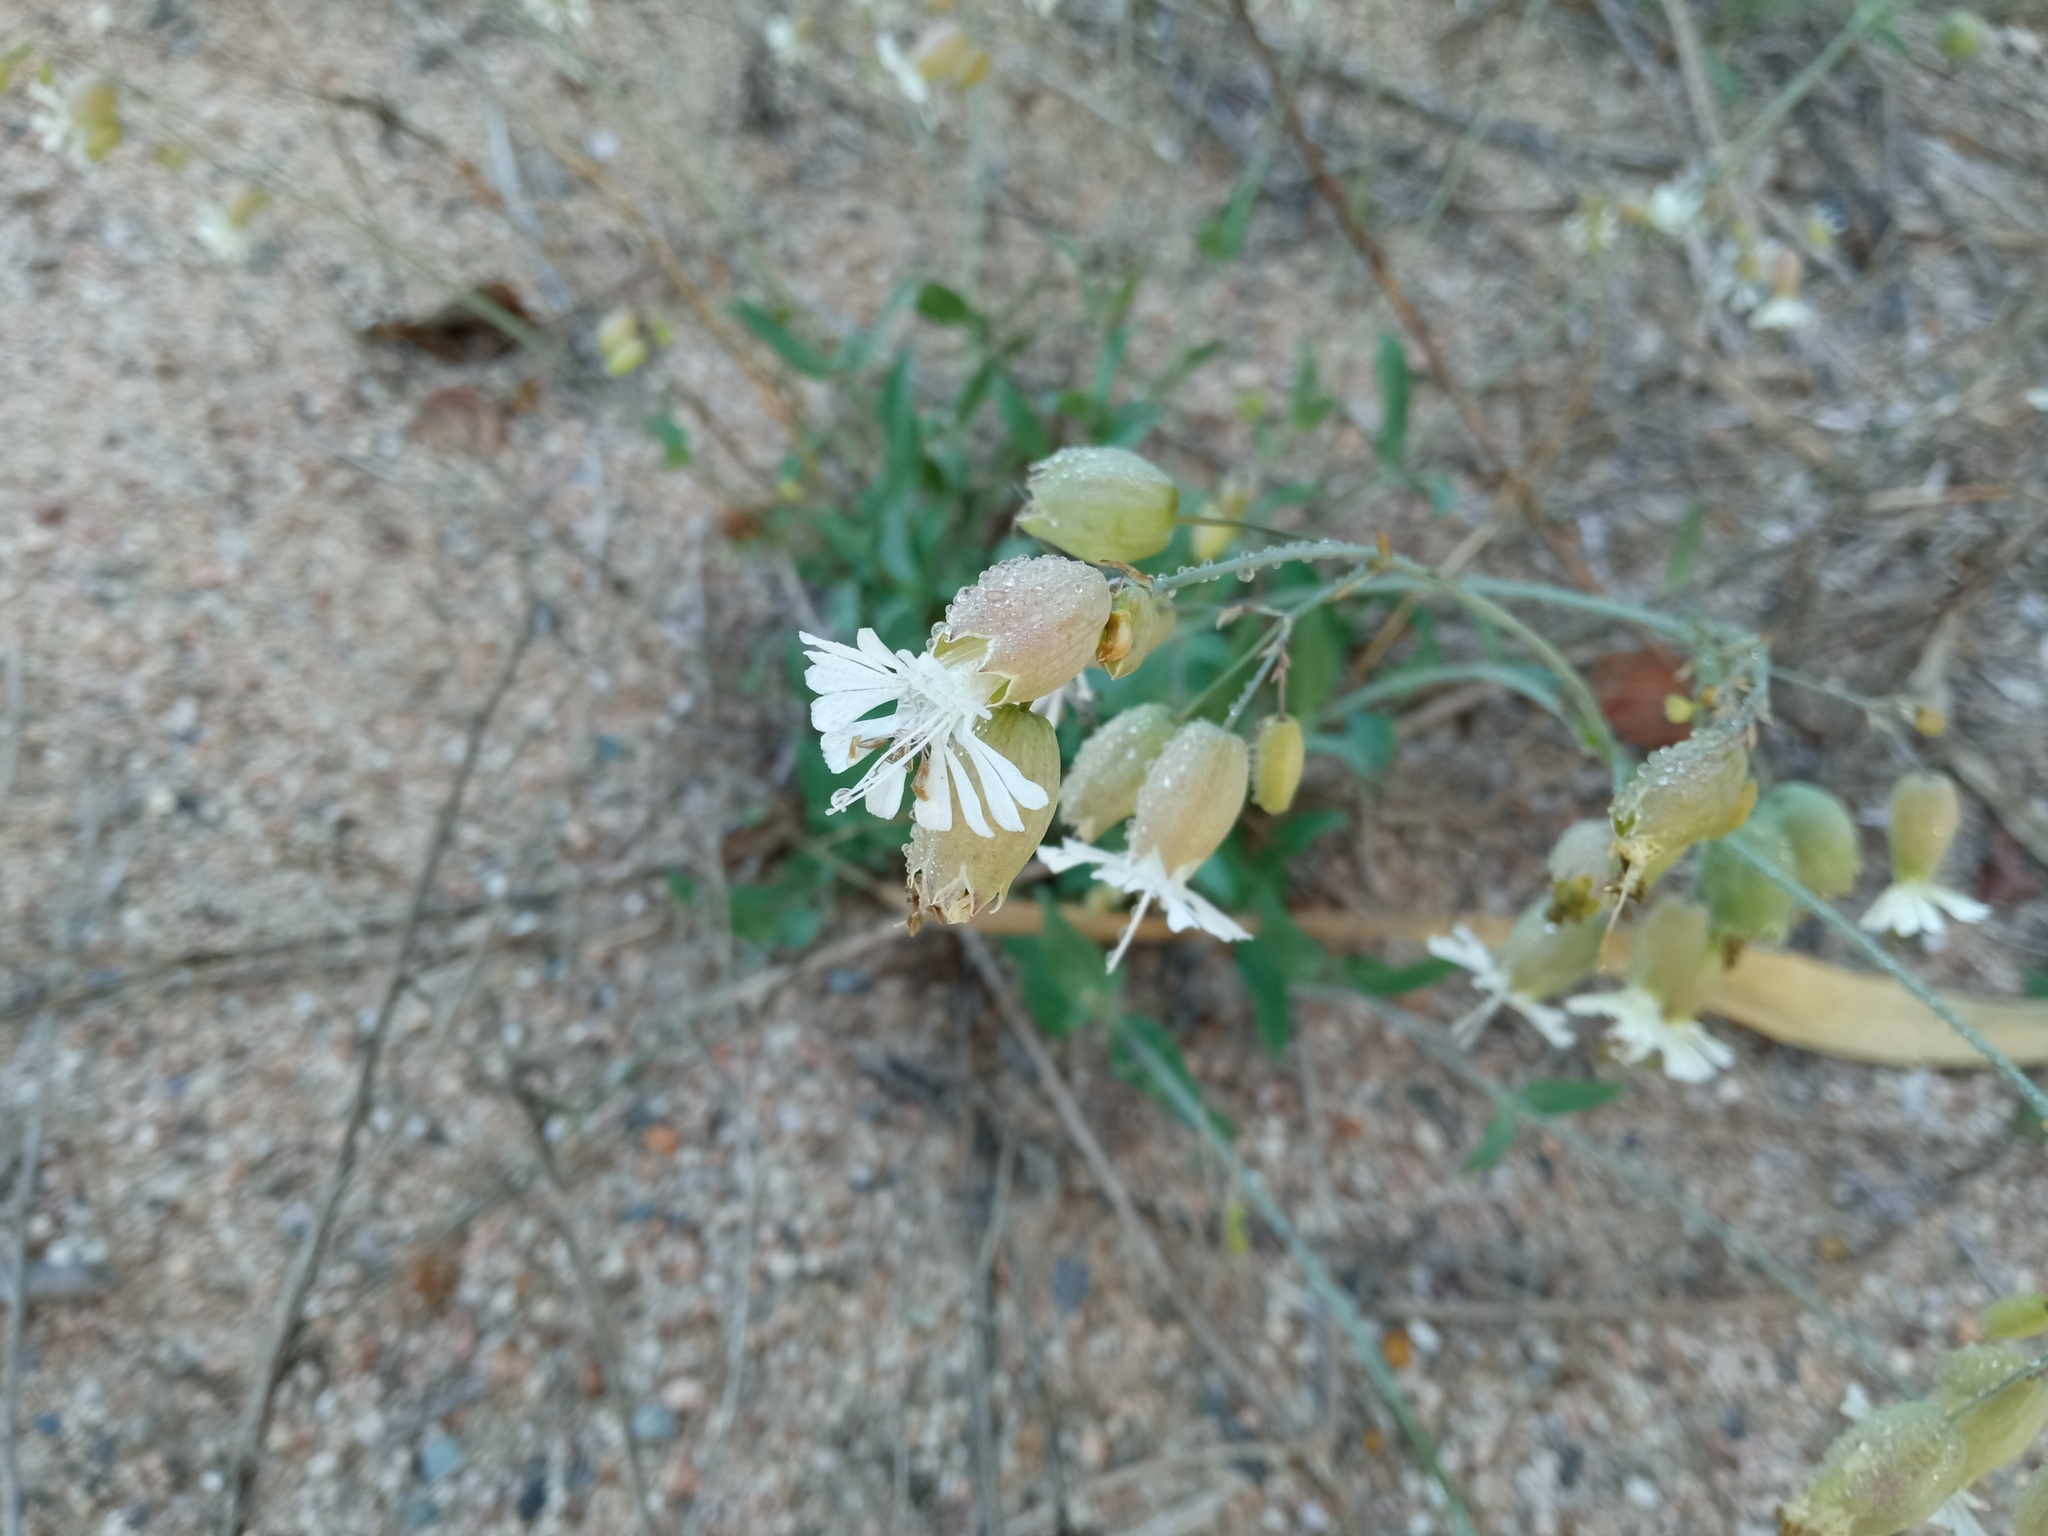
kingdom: Plantae
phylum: Tracheophyta
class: Magnoliopsida
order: Caryophyllales
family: Caryophyllaceae
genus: Silene
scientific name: Silene vulgaris
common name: Bladder campion
